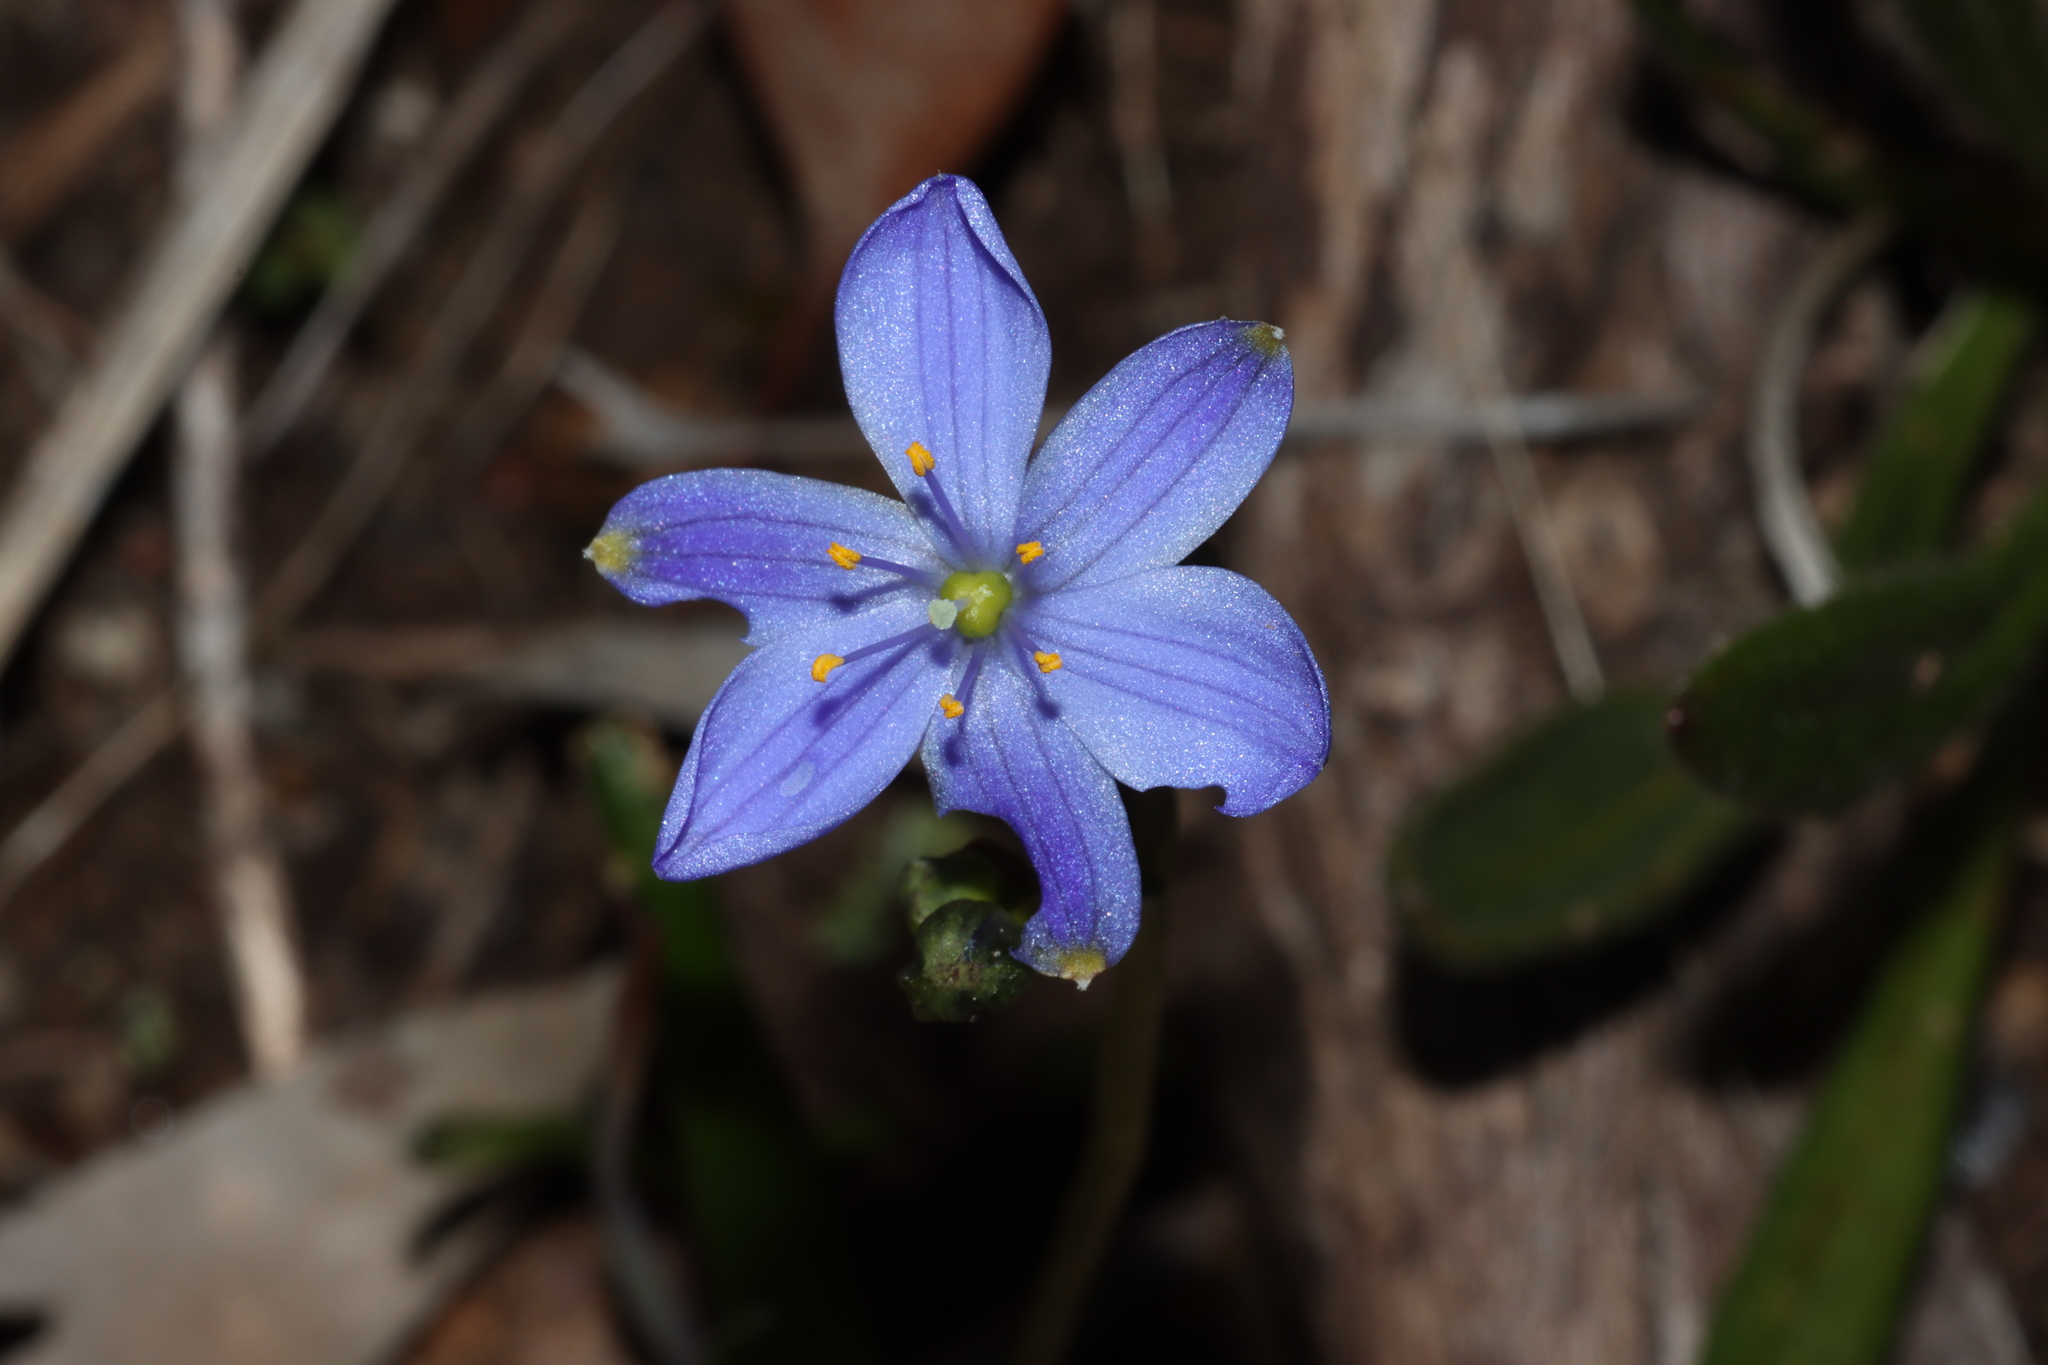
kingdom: Plantae
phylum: Tracheophyta
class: Liliopsida
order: Asparagales
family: Asphodelaceae
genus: Chamaescilla
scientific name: Chamaescilla corymbosa
